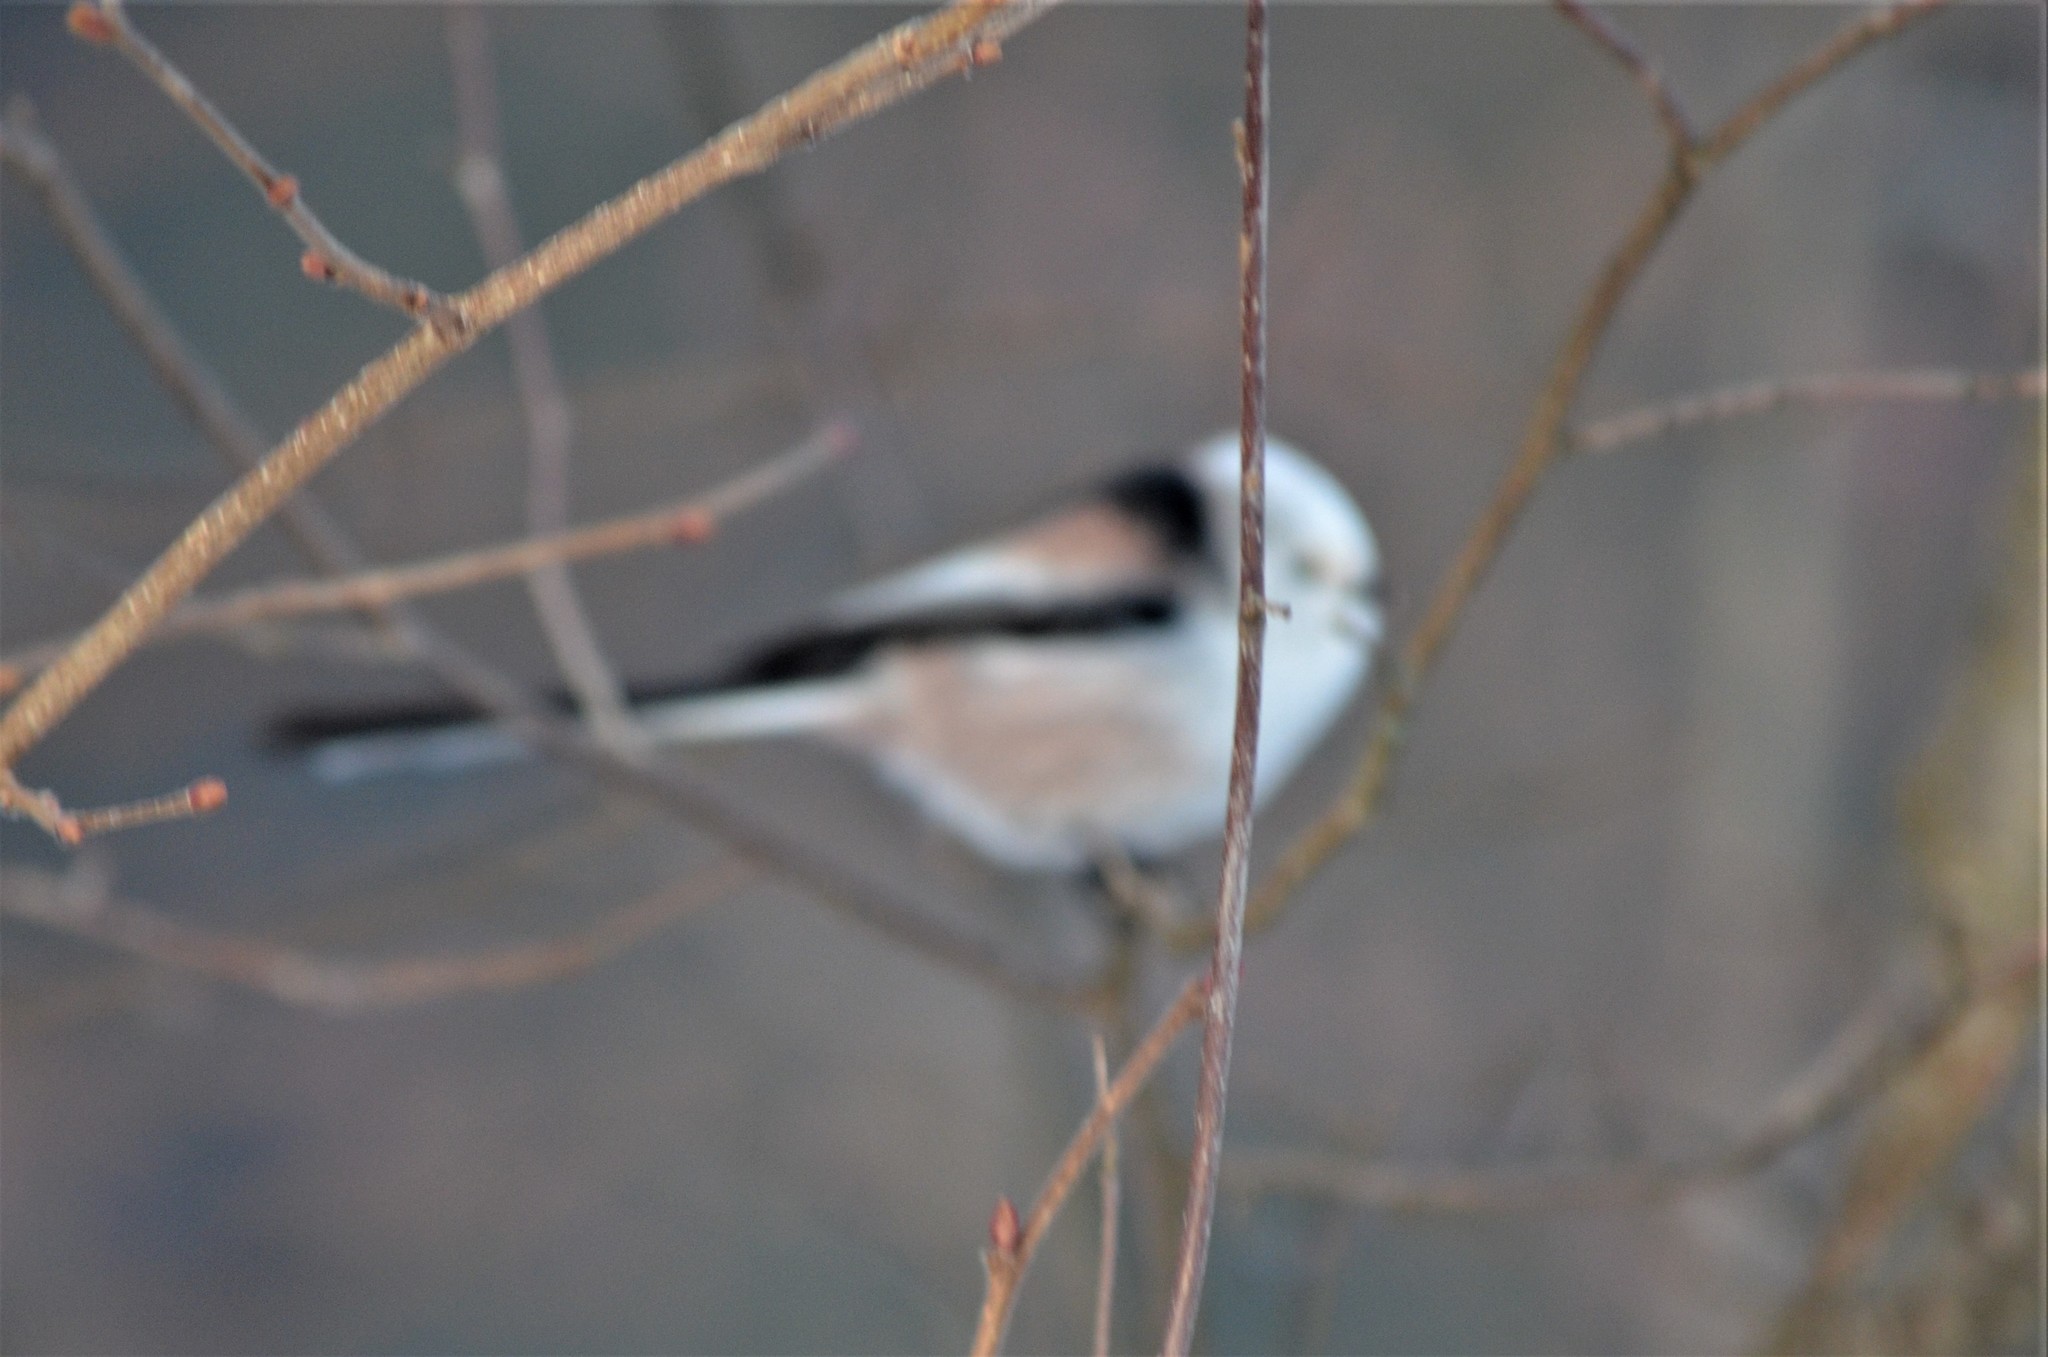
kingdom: Animalia
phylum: Chordata
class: Aves
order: Passeriformes
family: Aegithalidae
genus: Aegithalos
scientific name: Aegithalos caudatus
